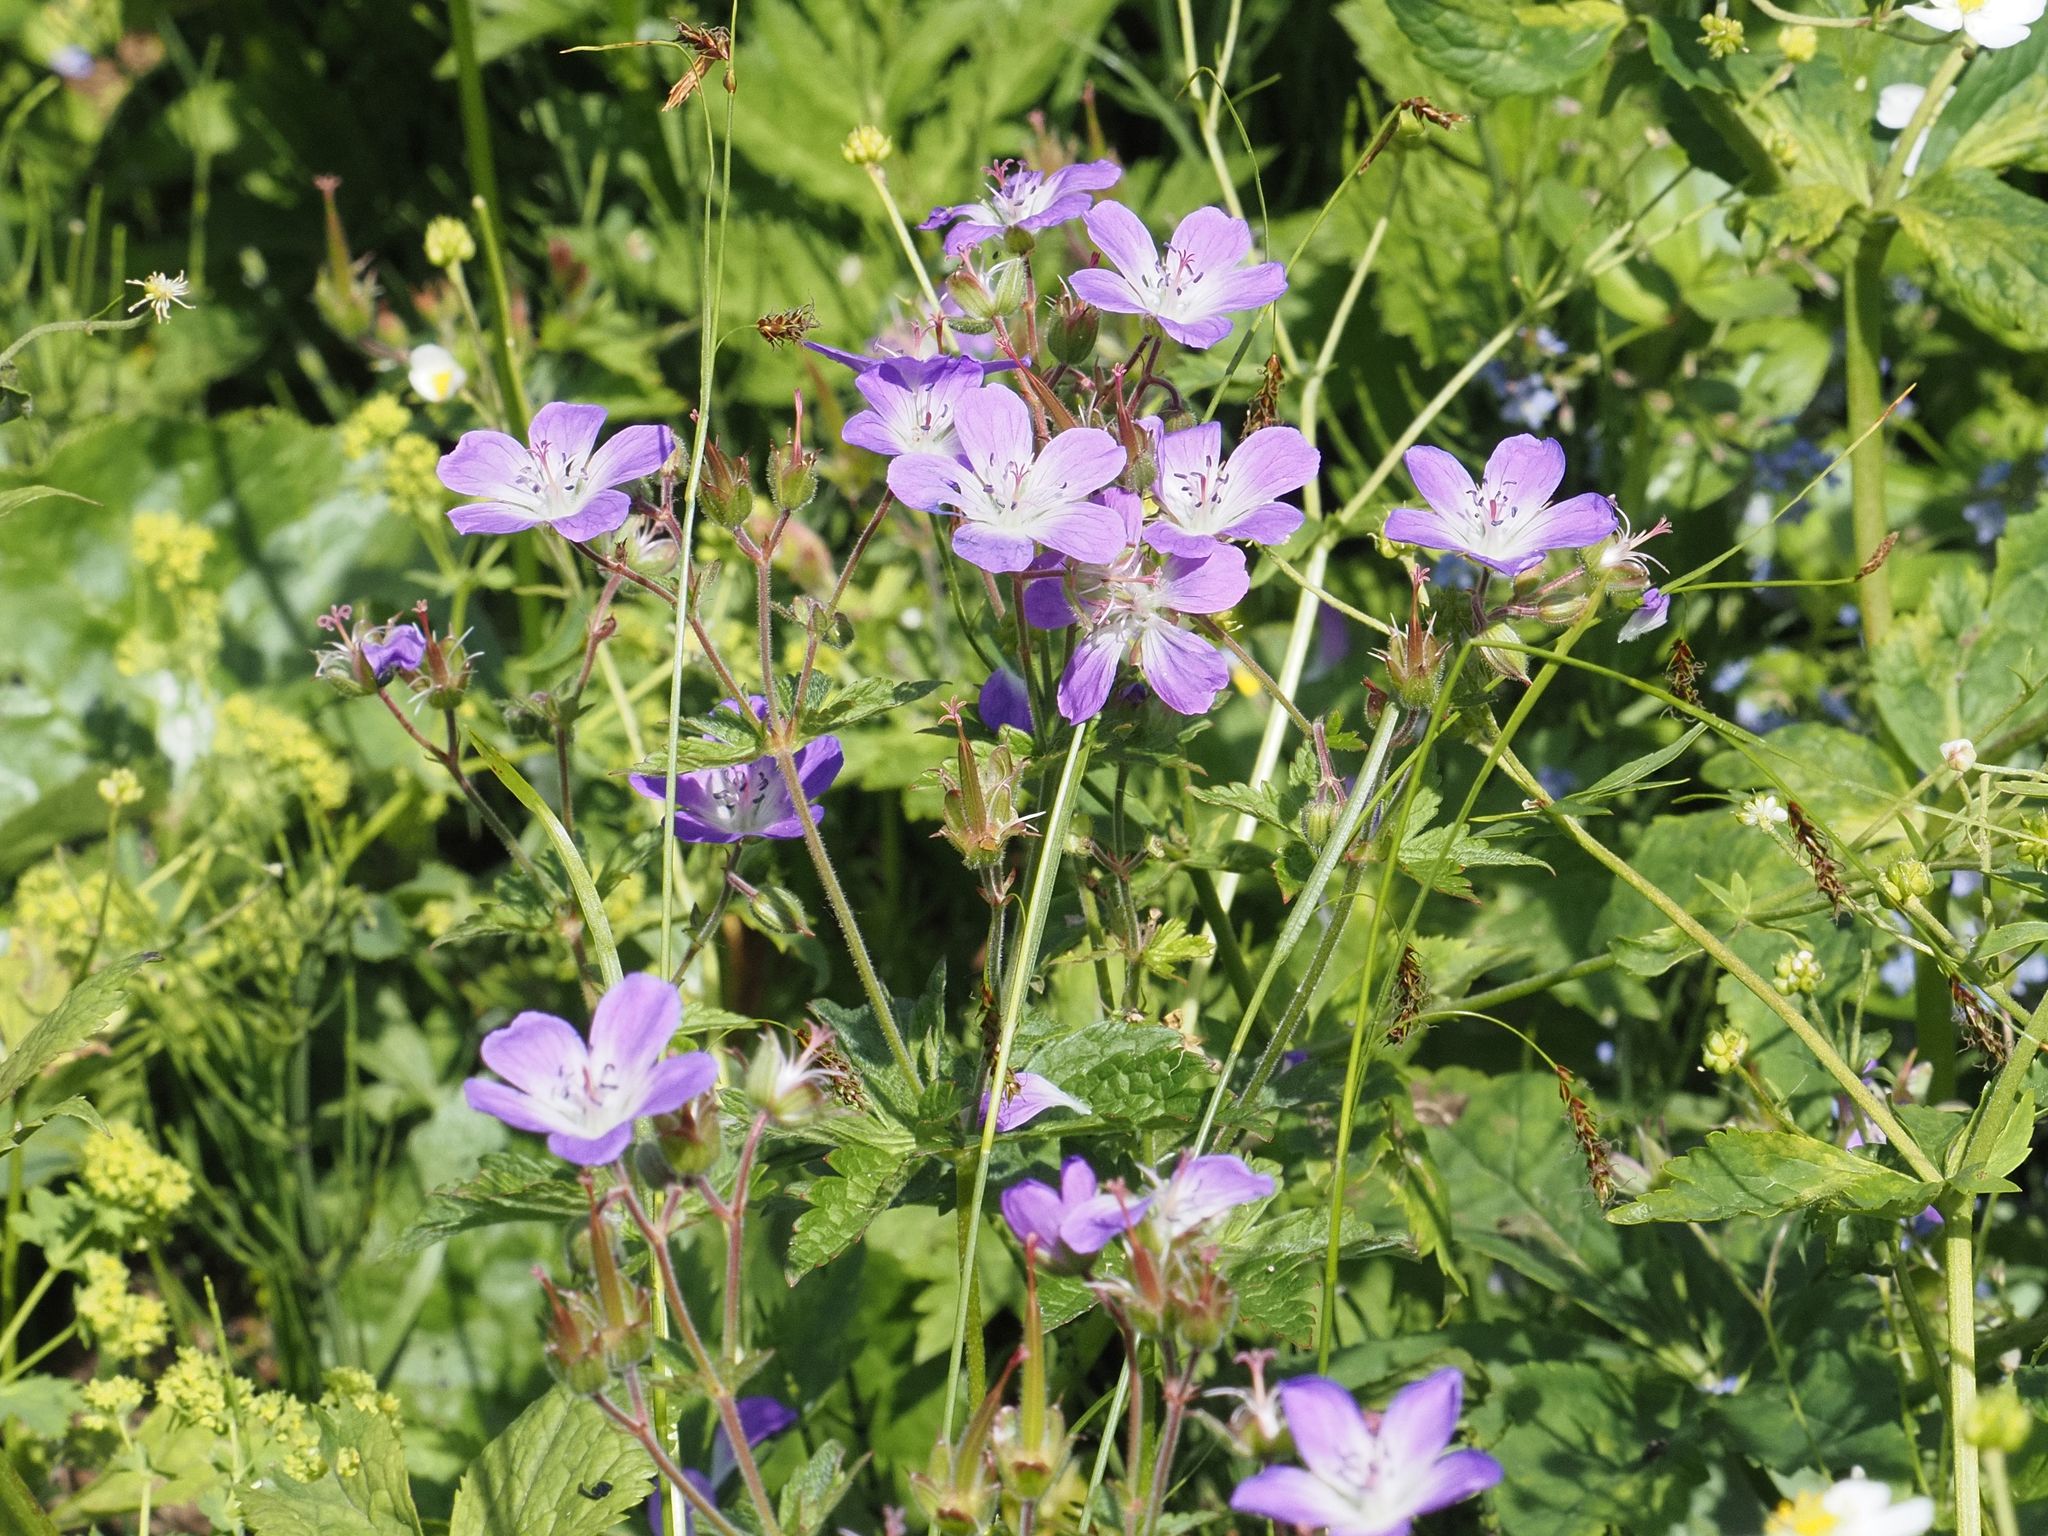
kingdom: Plantae
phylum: Tracheophyta
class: Magnoliopsida
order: Geraniales
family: Geraniaceae
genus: Geranium
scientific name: Geranium sylvaticum
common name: Wood crane's-bill
